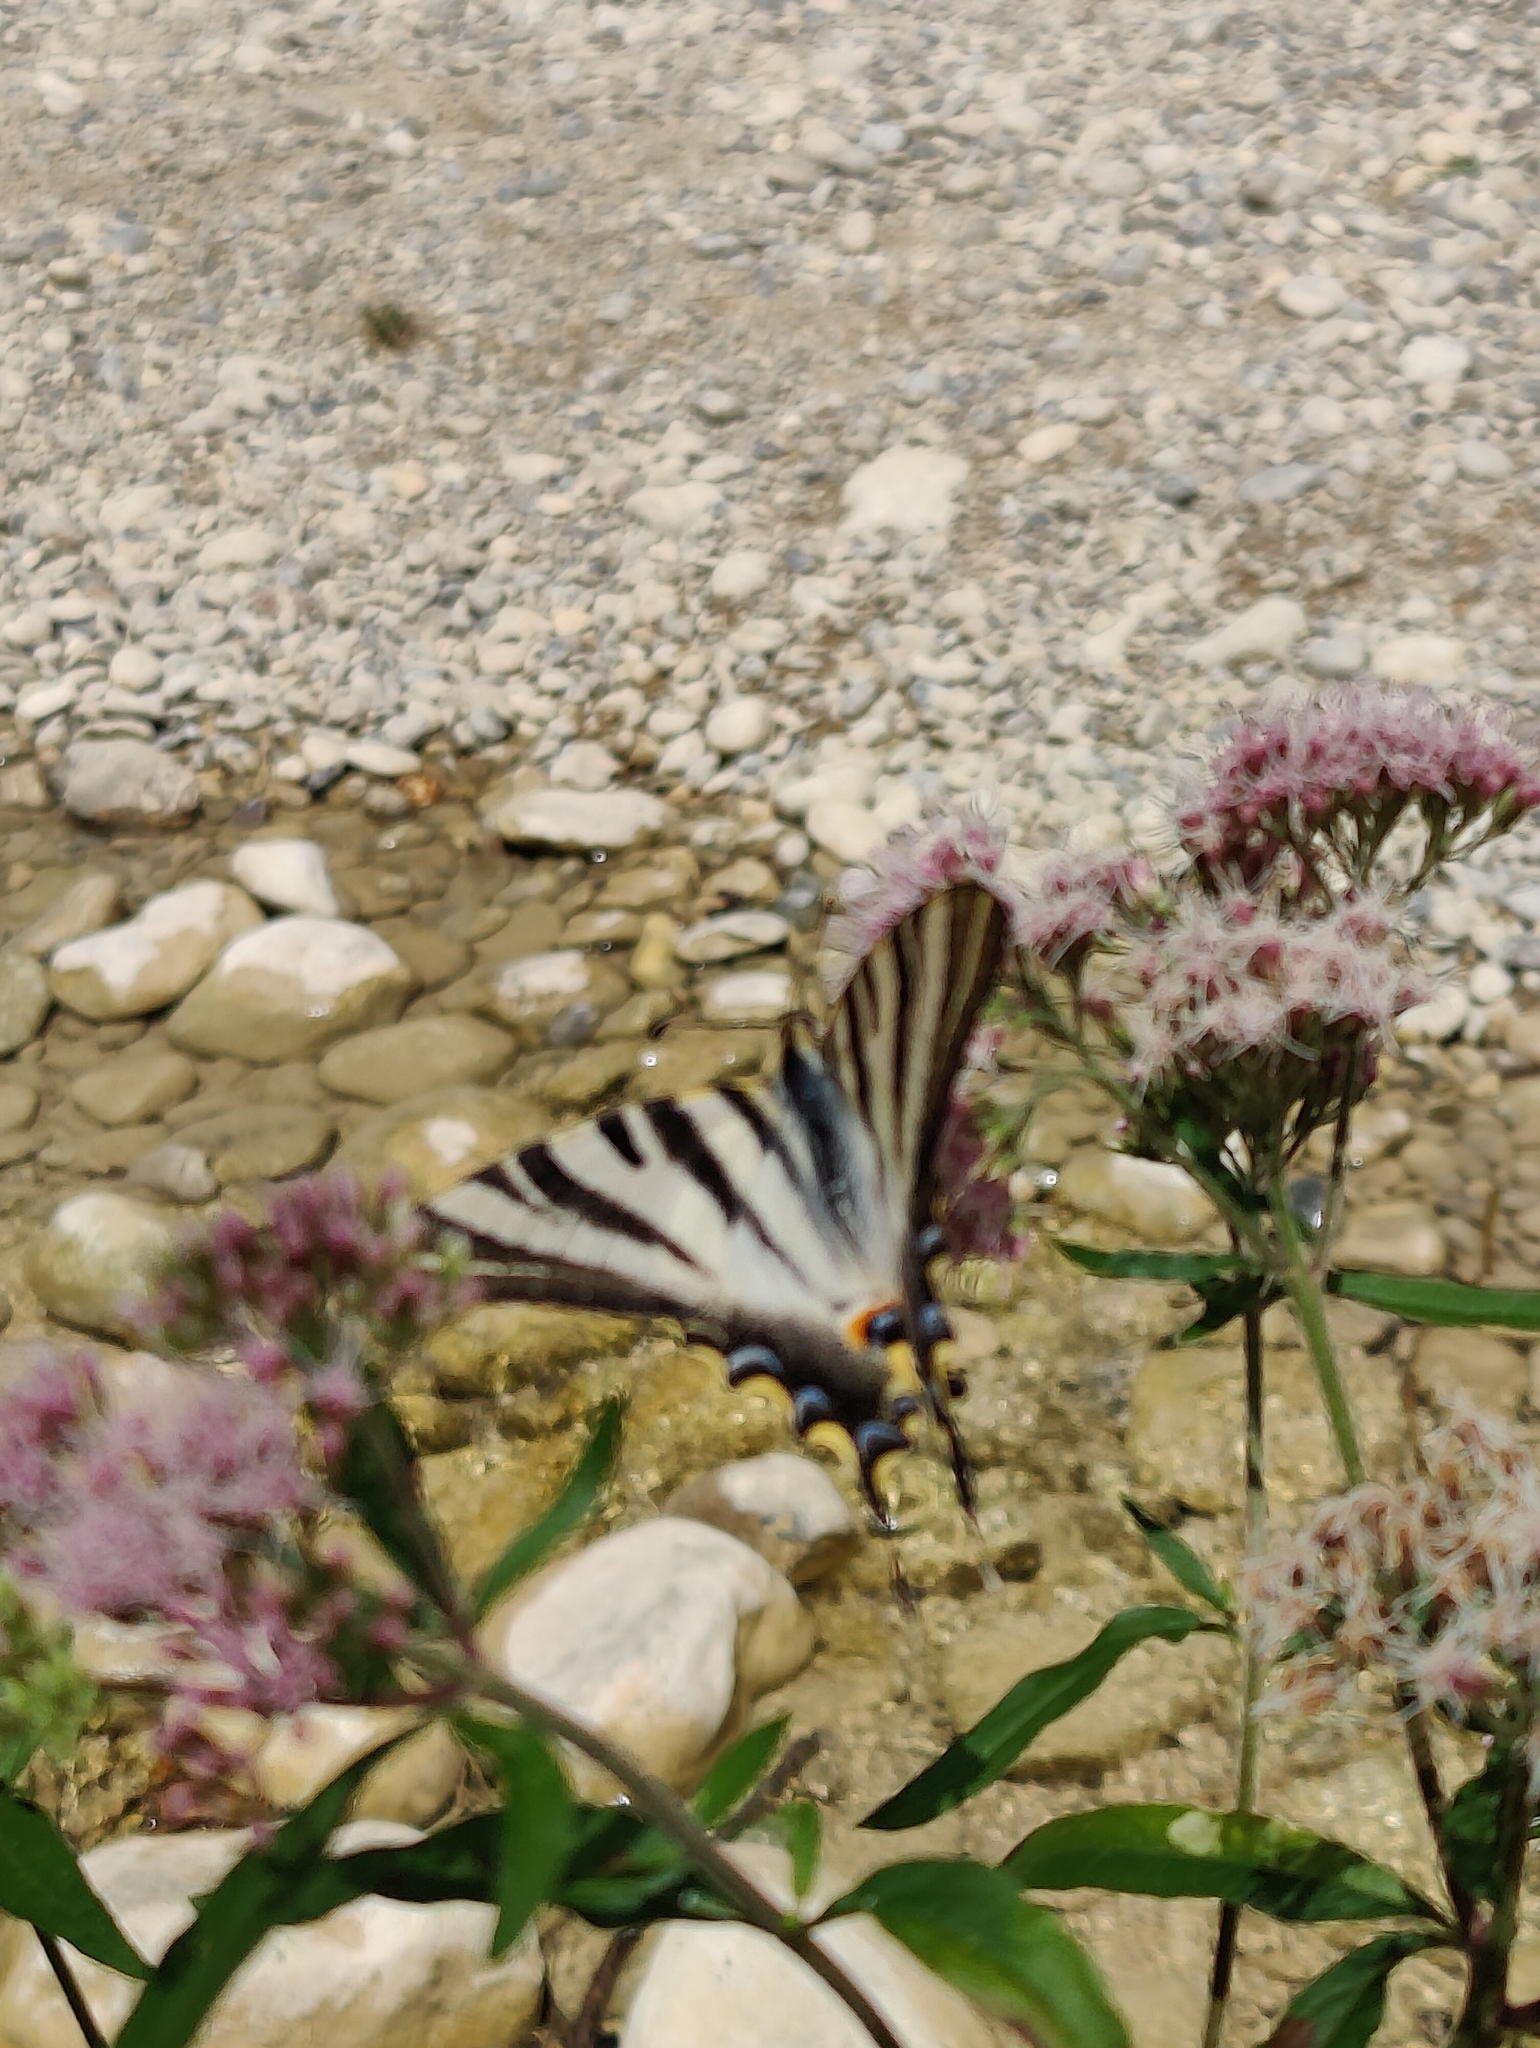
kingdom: Animalia
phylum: Arthropoda
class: Insecta
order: Lepidoptera
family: Papilionidae
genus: Iphiclides
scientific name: Iphiclides feisthamelii
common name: Iberian scarce swallowtail
